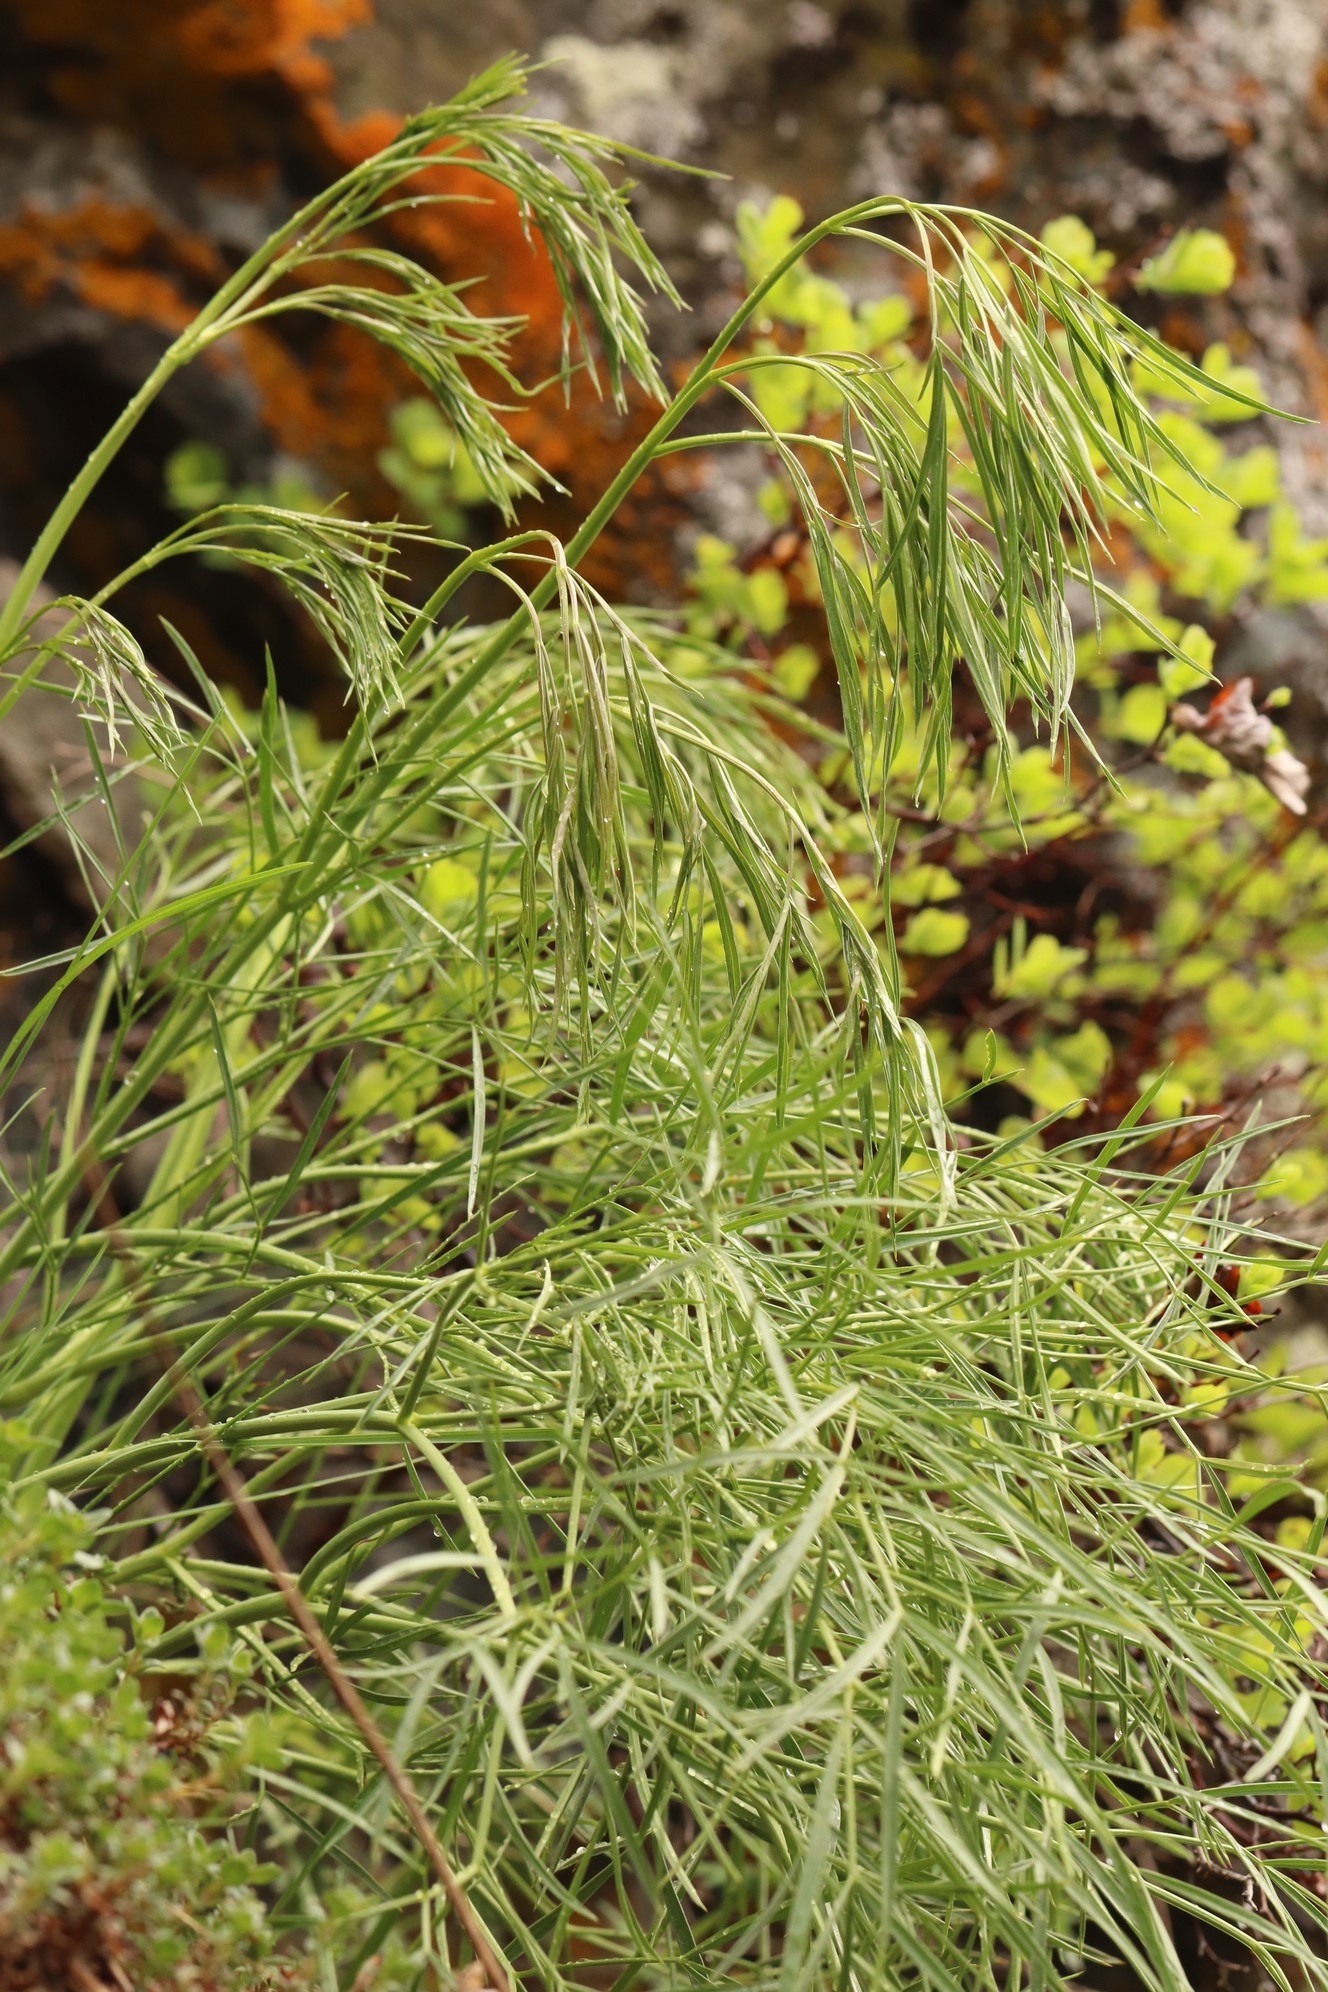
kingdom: Plantae
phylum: Tracheophyta
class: Magnoliopsida
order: Apiales
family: Apiaceae
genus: Peucedanum
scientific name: Peucedanum morisonii
